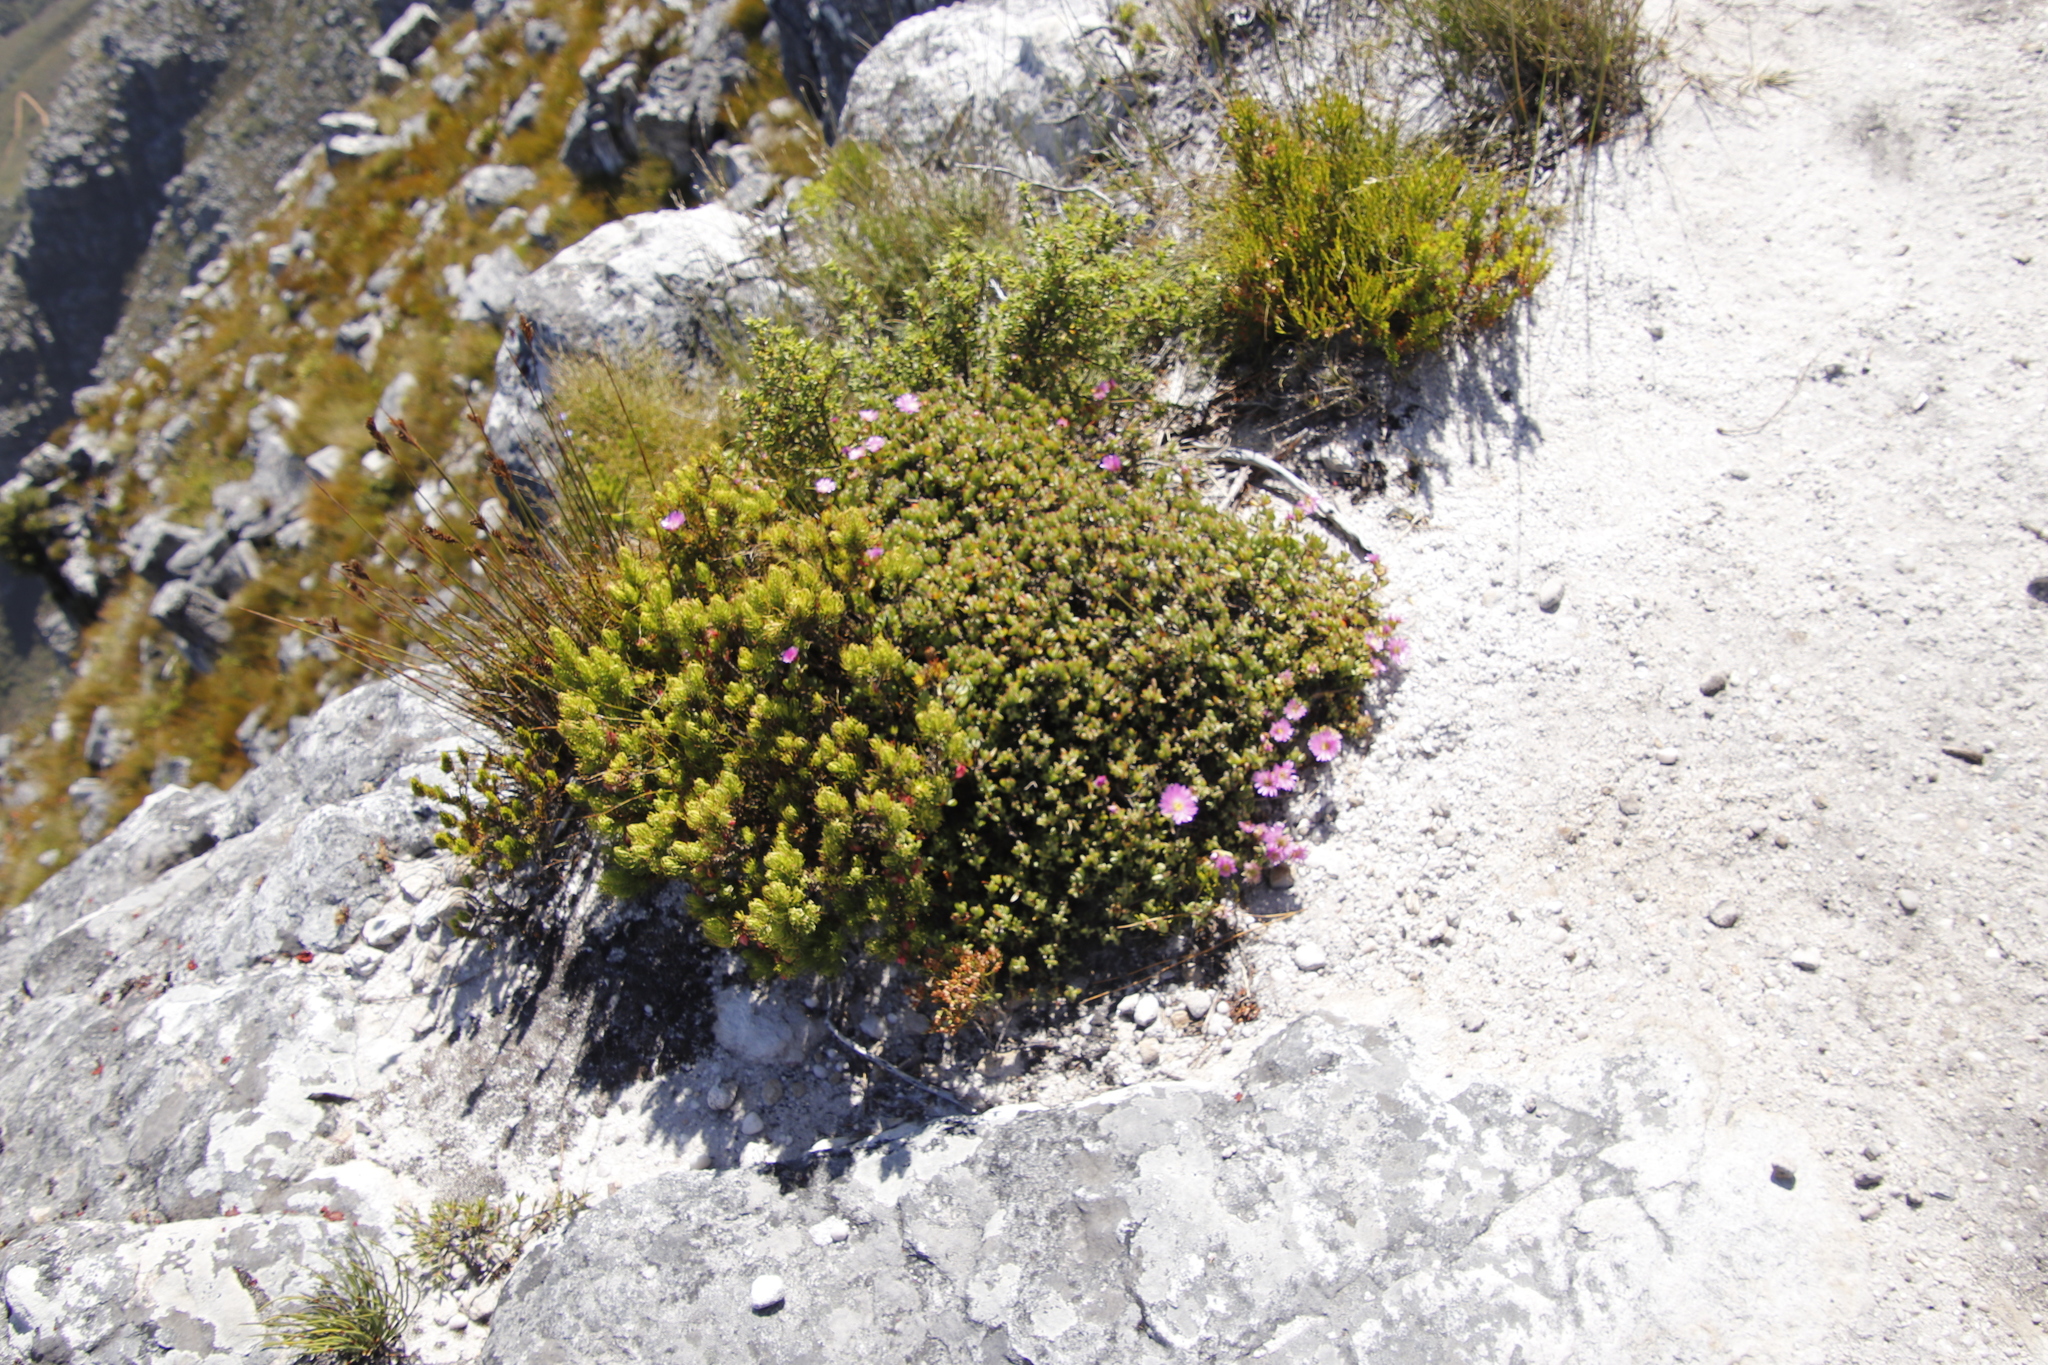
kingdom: Plantae
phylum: Tracheophyta
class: Magnoliopsida
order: Caryophyllales
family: Aizoaceae
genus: Oscularia
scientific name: Oscularia falciformis
